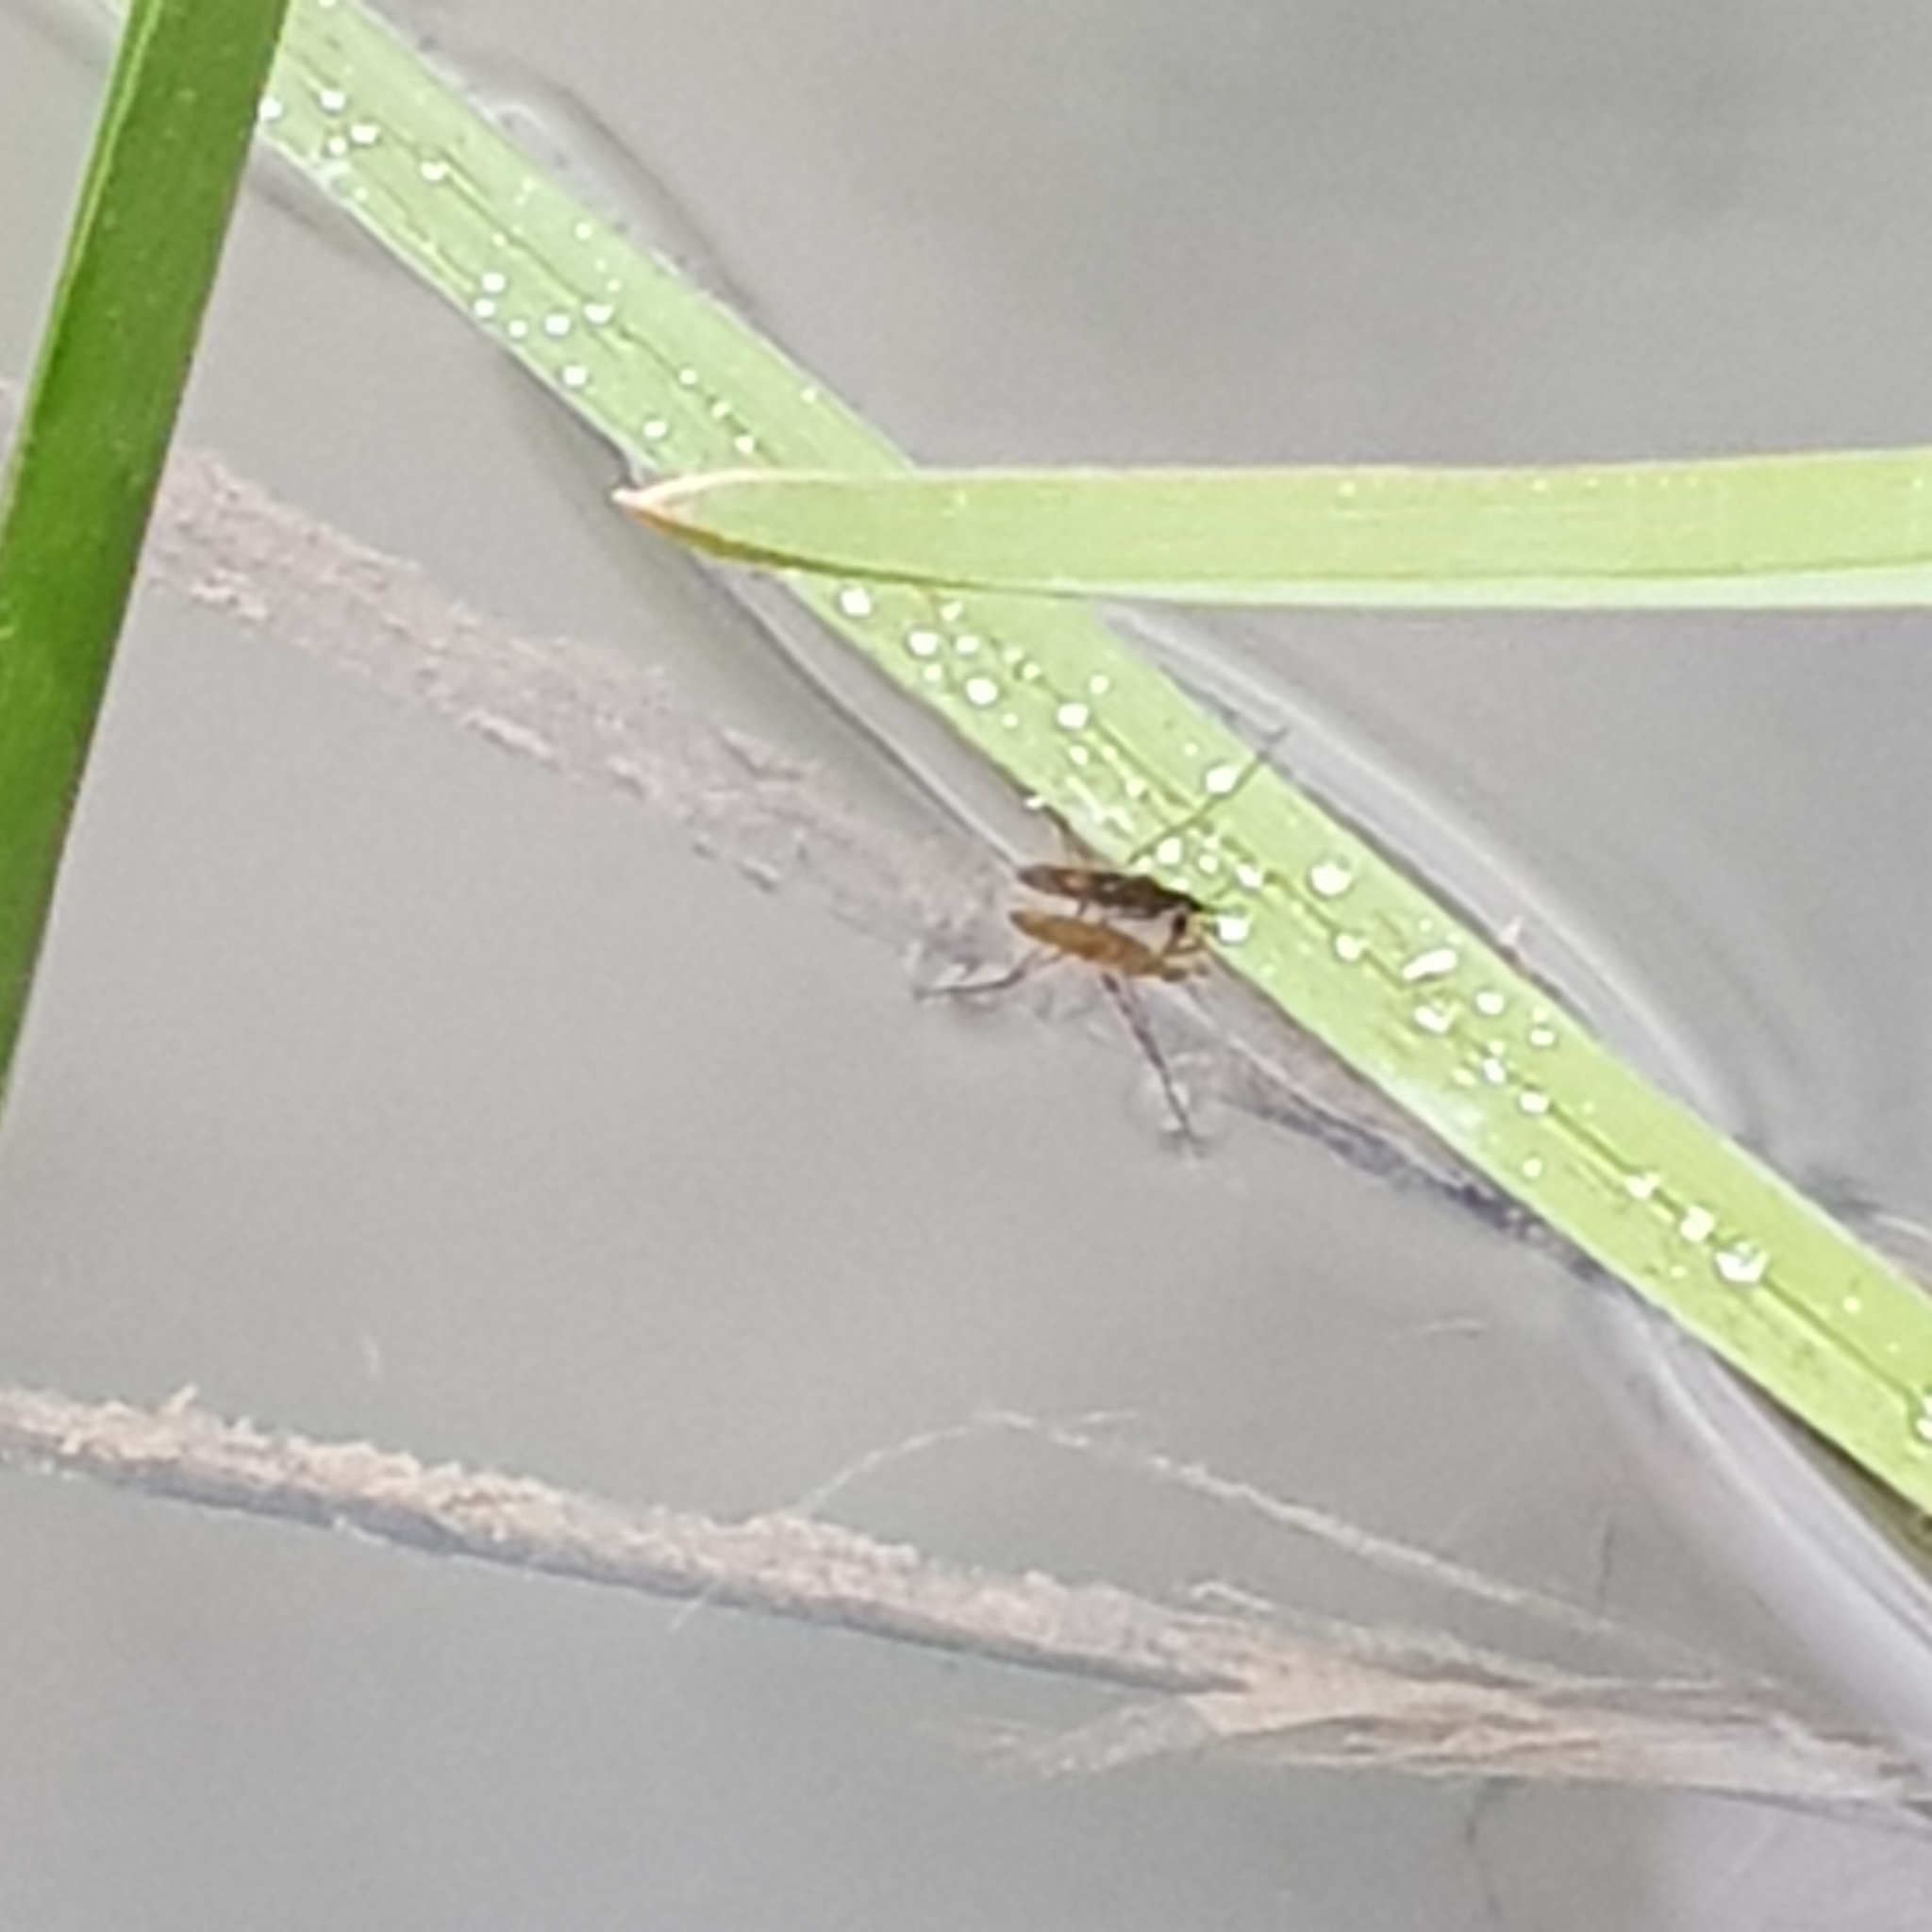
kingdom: Animalia
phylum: Arthropoda
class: Insecta
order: Hemiptera
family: Gerridae
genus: Gerris
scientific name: Gerris
